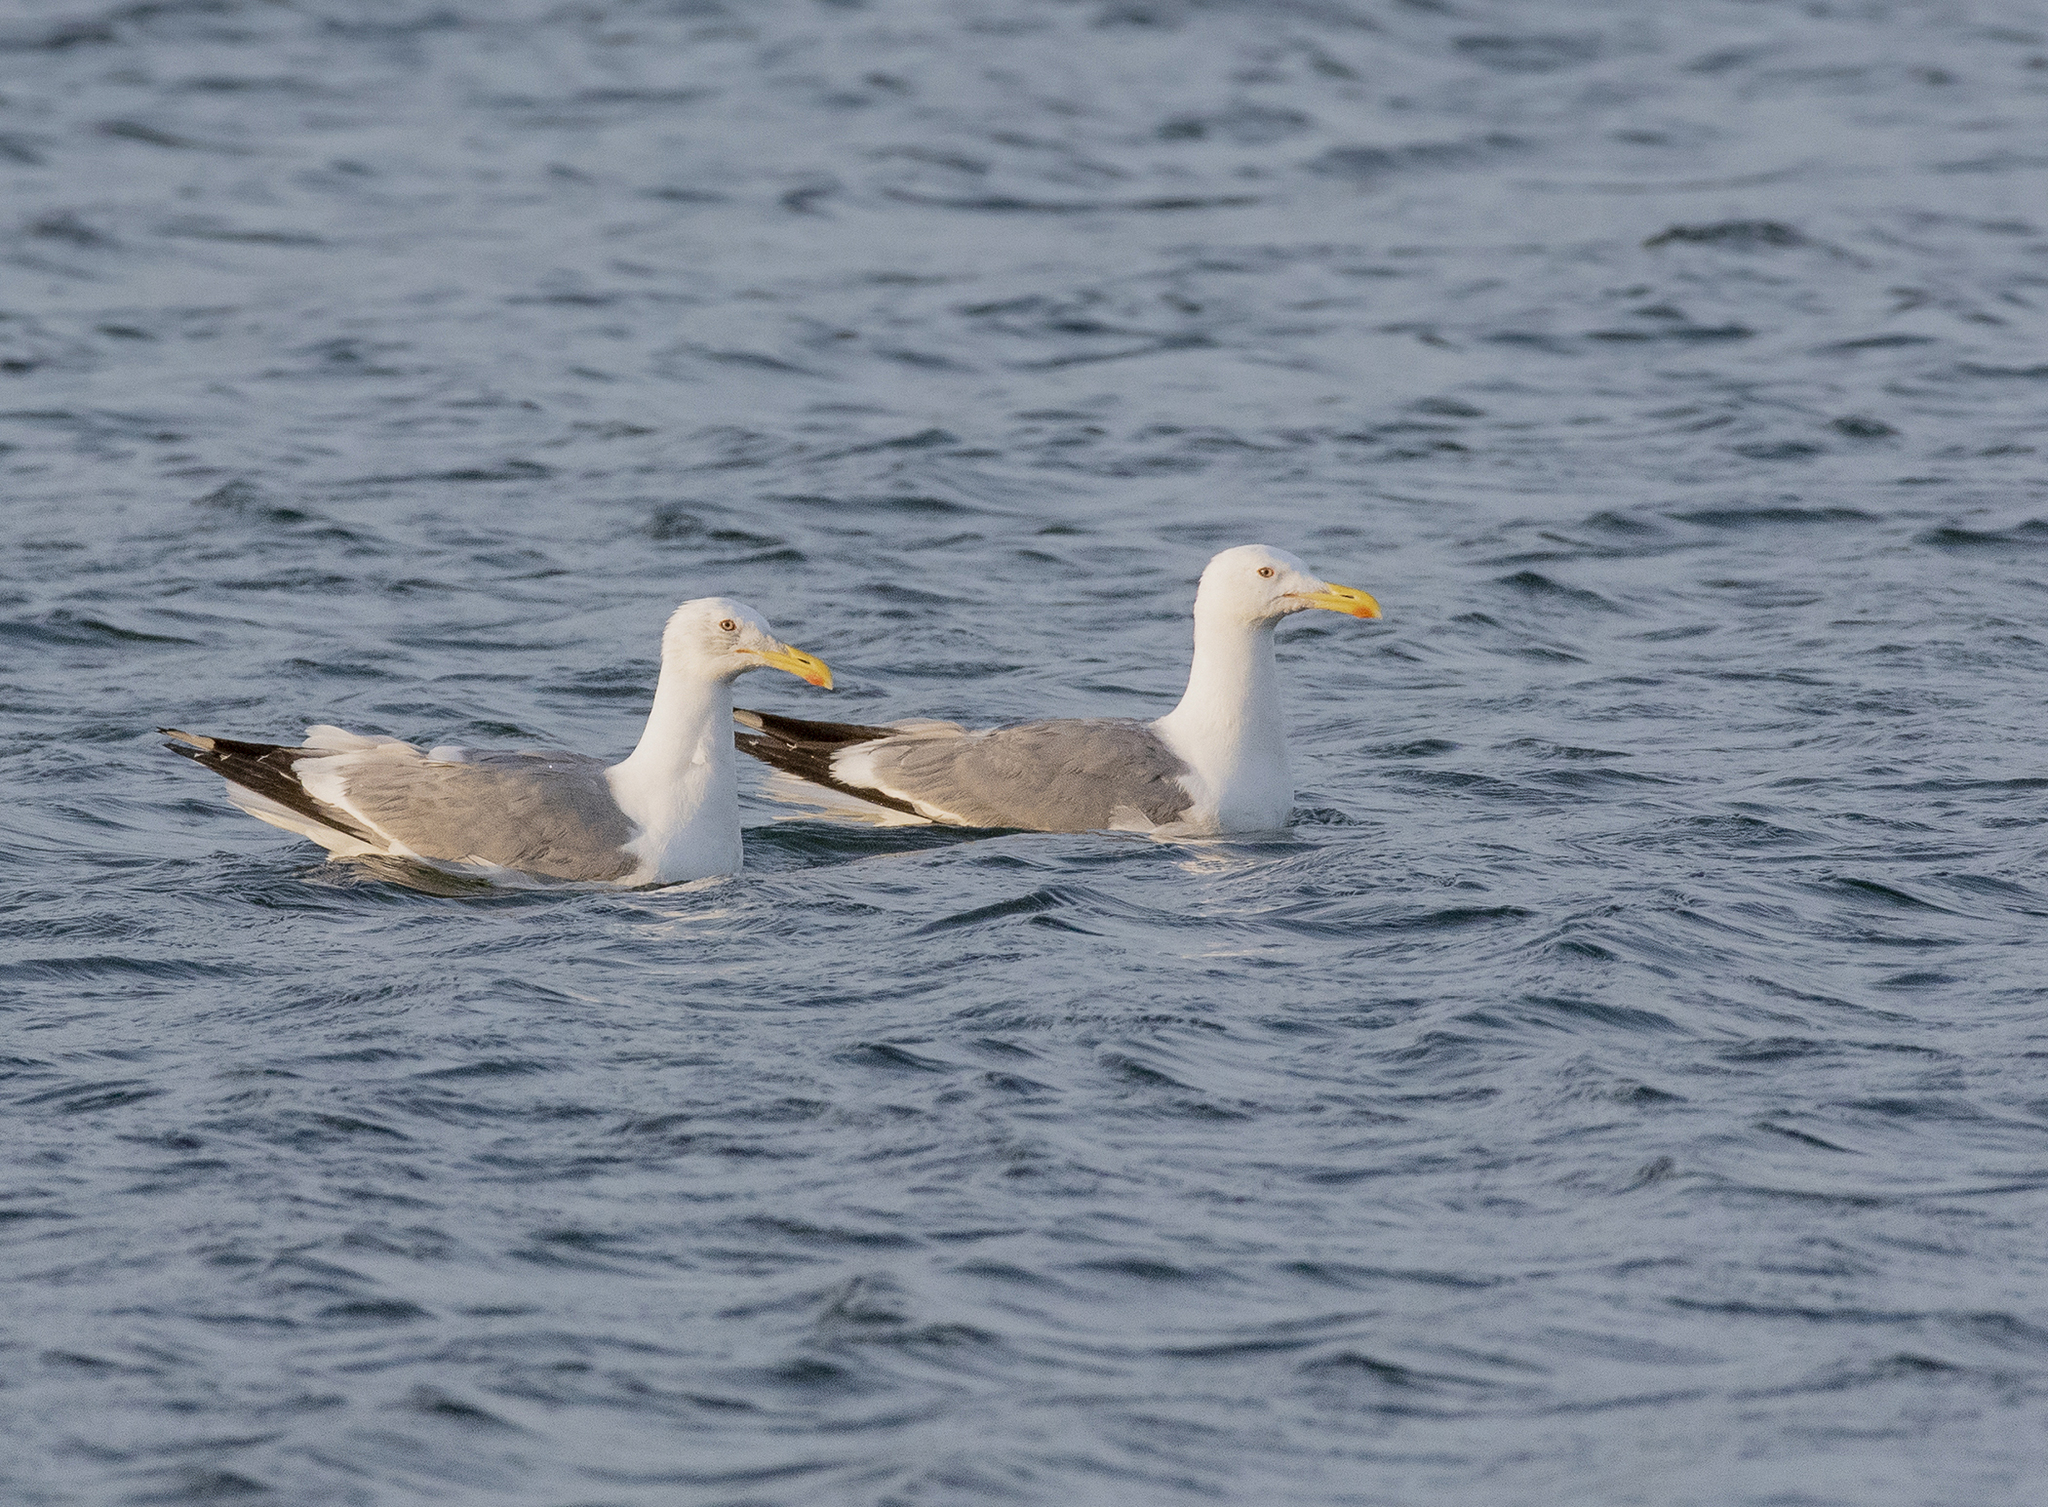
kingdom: Animalia
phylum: Chordata
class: Aves
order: Charadriiformes
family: Laridae
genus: Larus
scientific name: Larus vegae
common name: Vega gull
